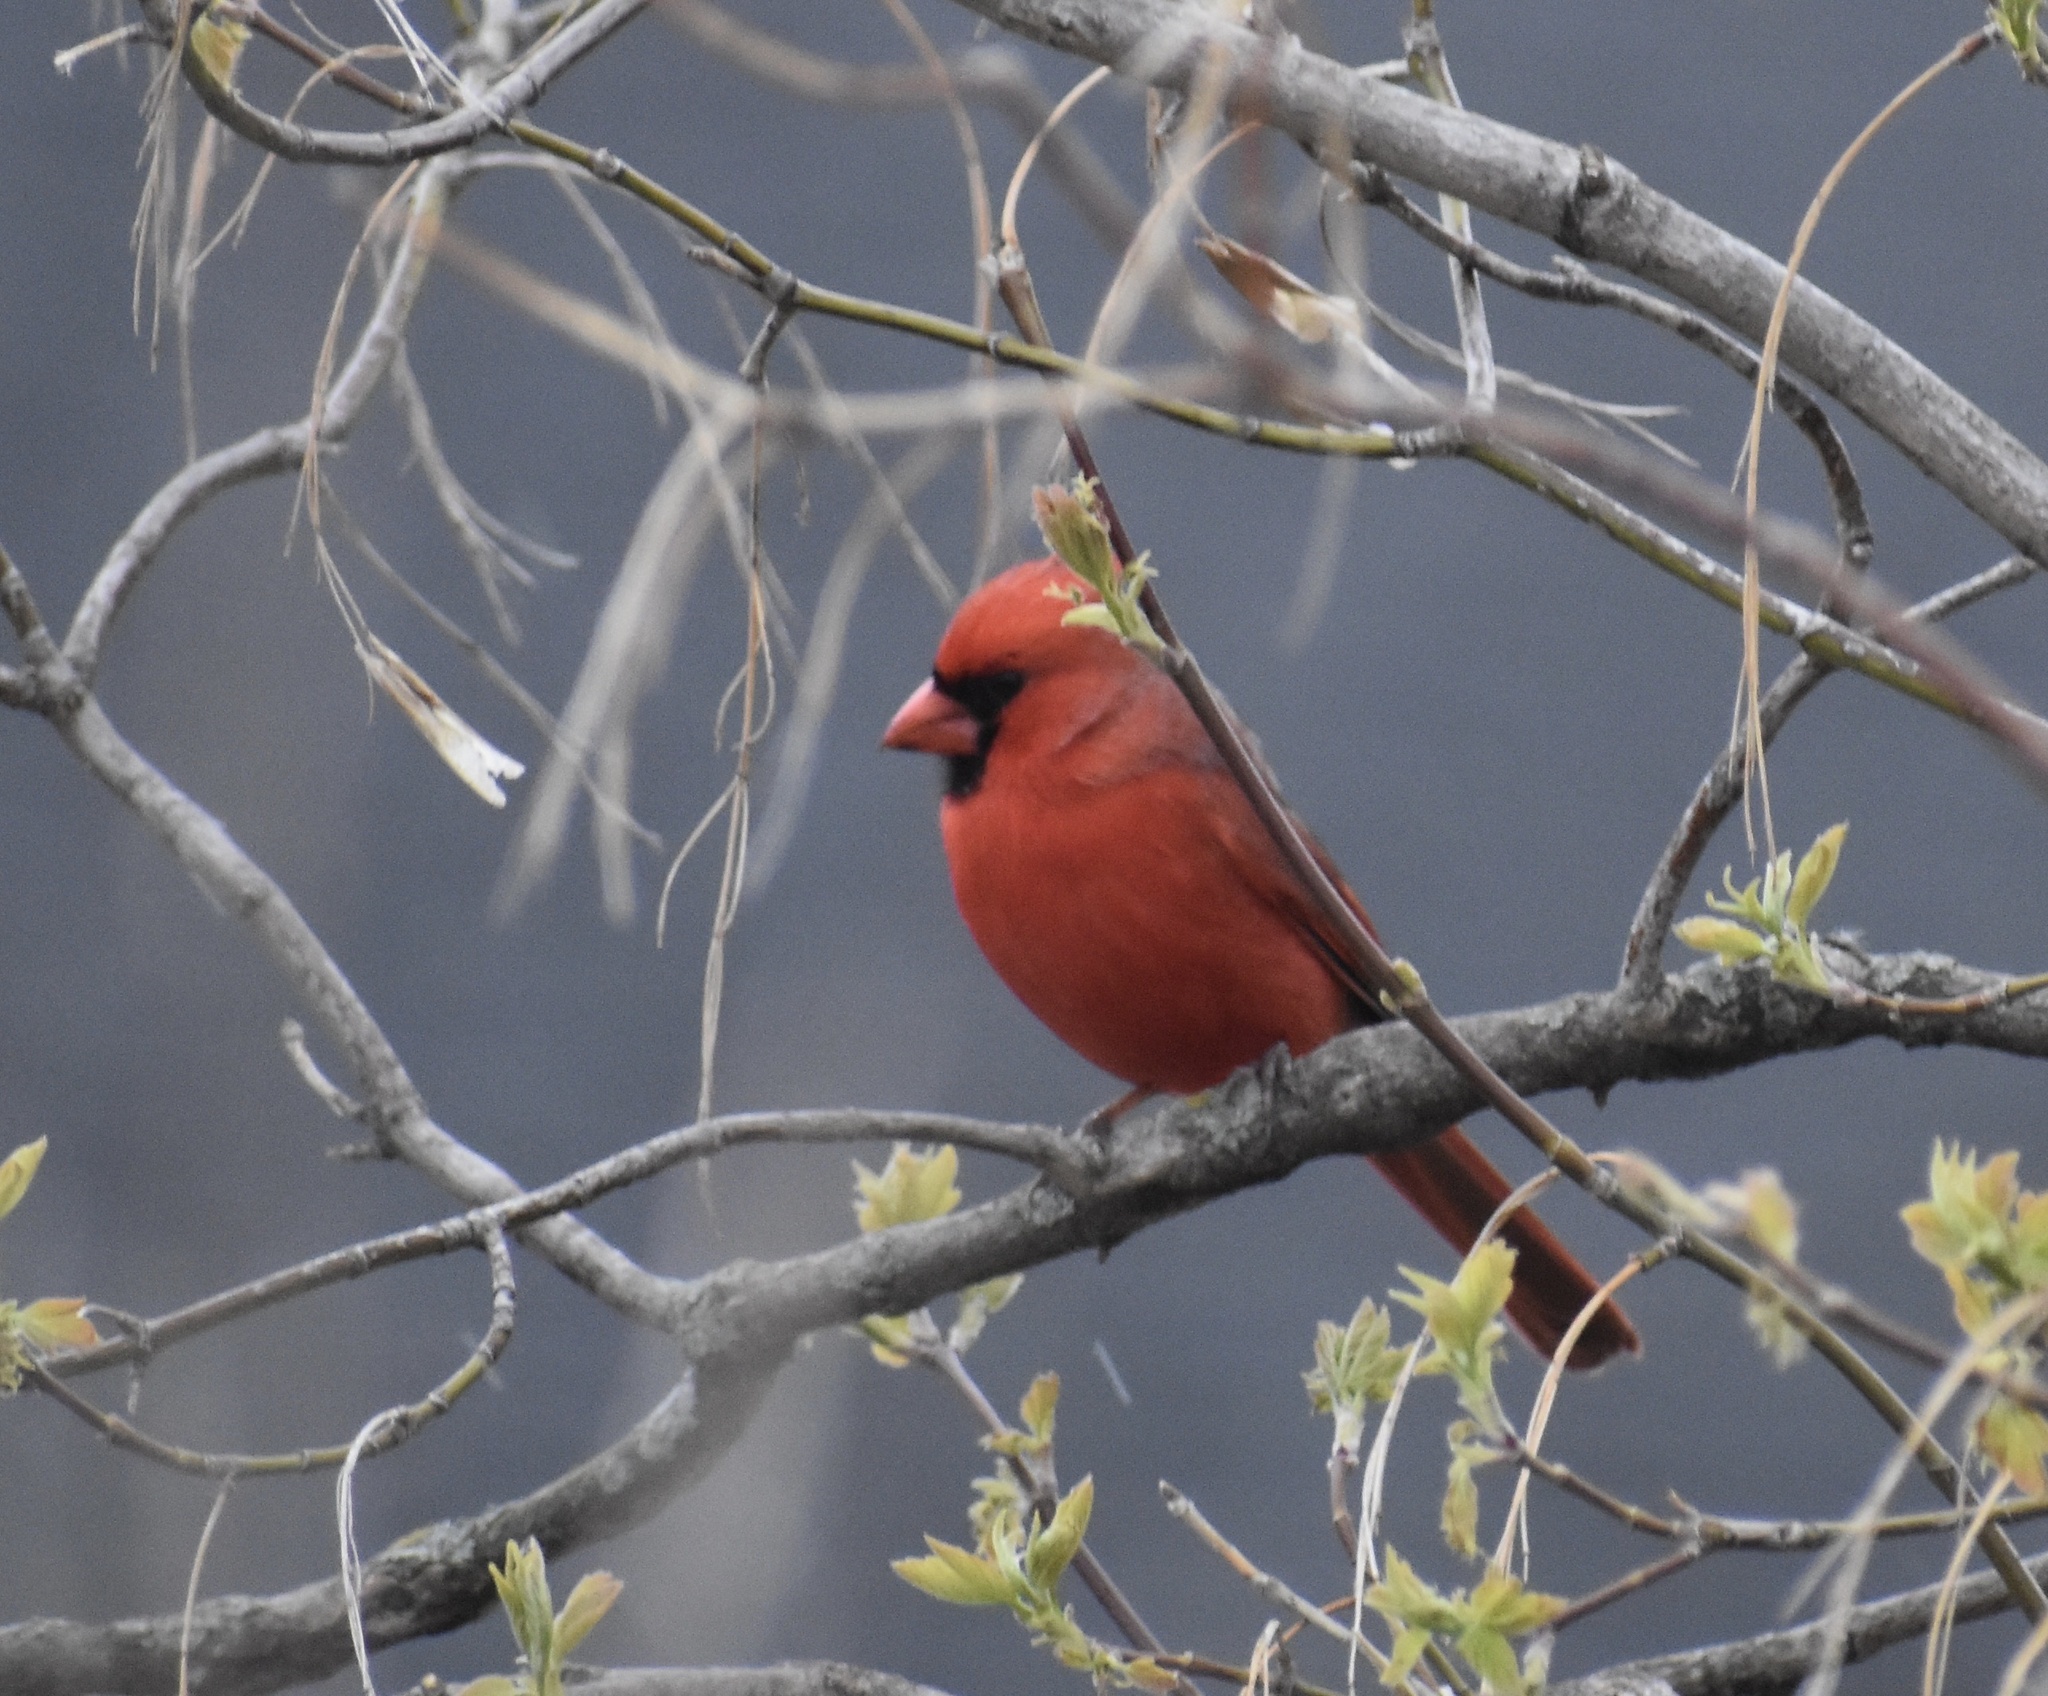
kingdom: Animalia
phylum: Chordata
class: Aves
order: Passeriformes
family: Cardinalidae
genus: Cardinalis
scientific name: Cardinalis cardinalis
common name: Northern cardinal
